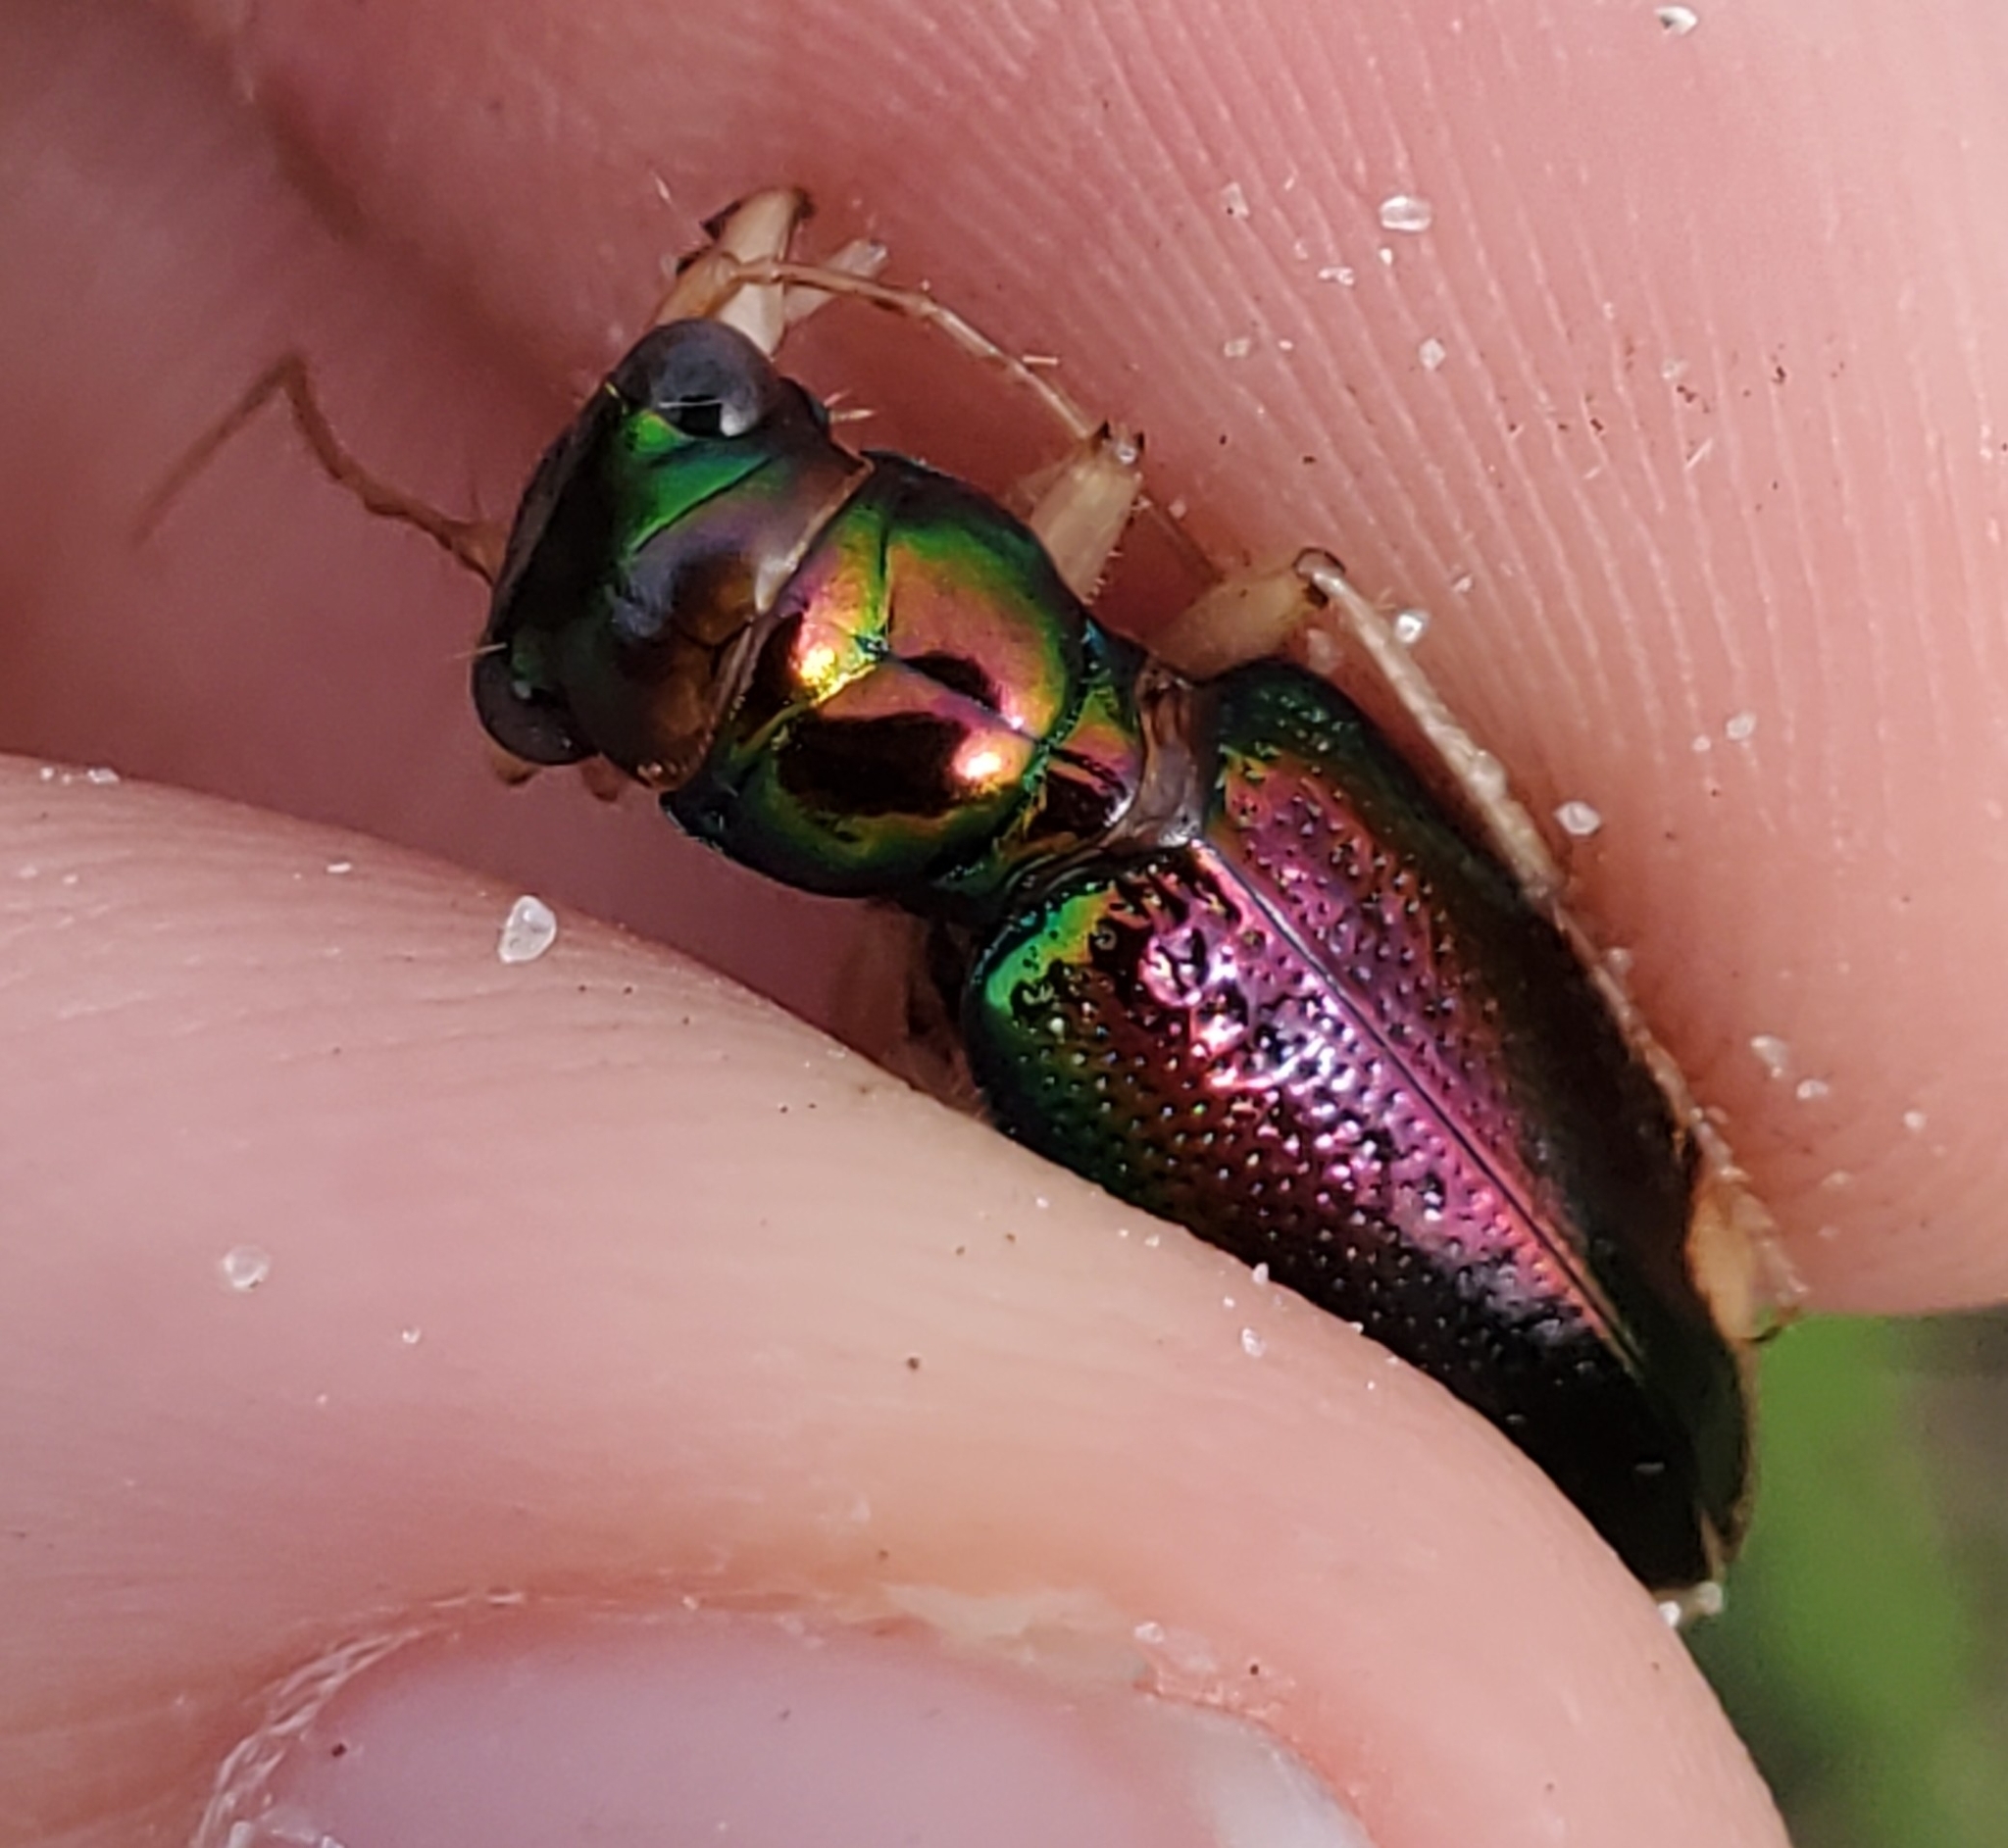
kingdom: Animalia
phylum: Arthropoda
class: Insecta
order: Coleoptera
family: Carabidae
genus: Tetracha
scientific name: Tetracha carolina
